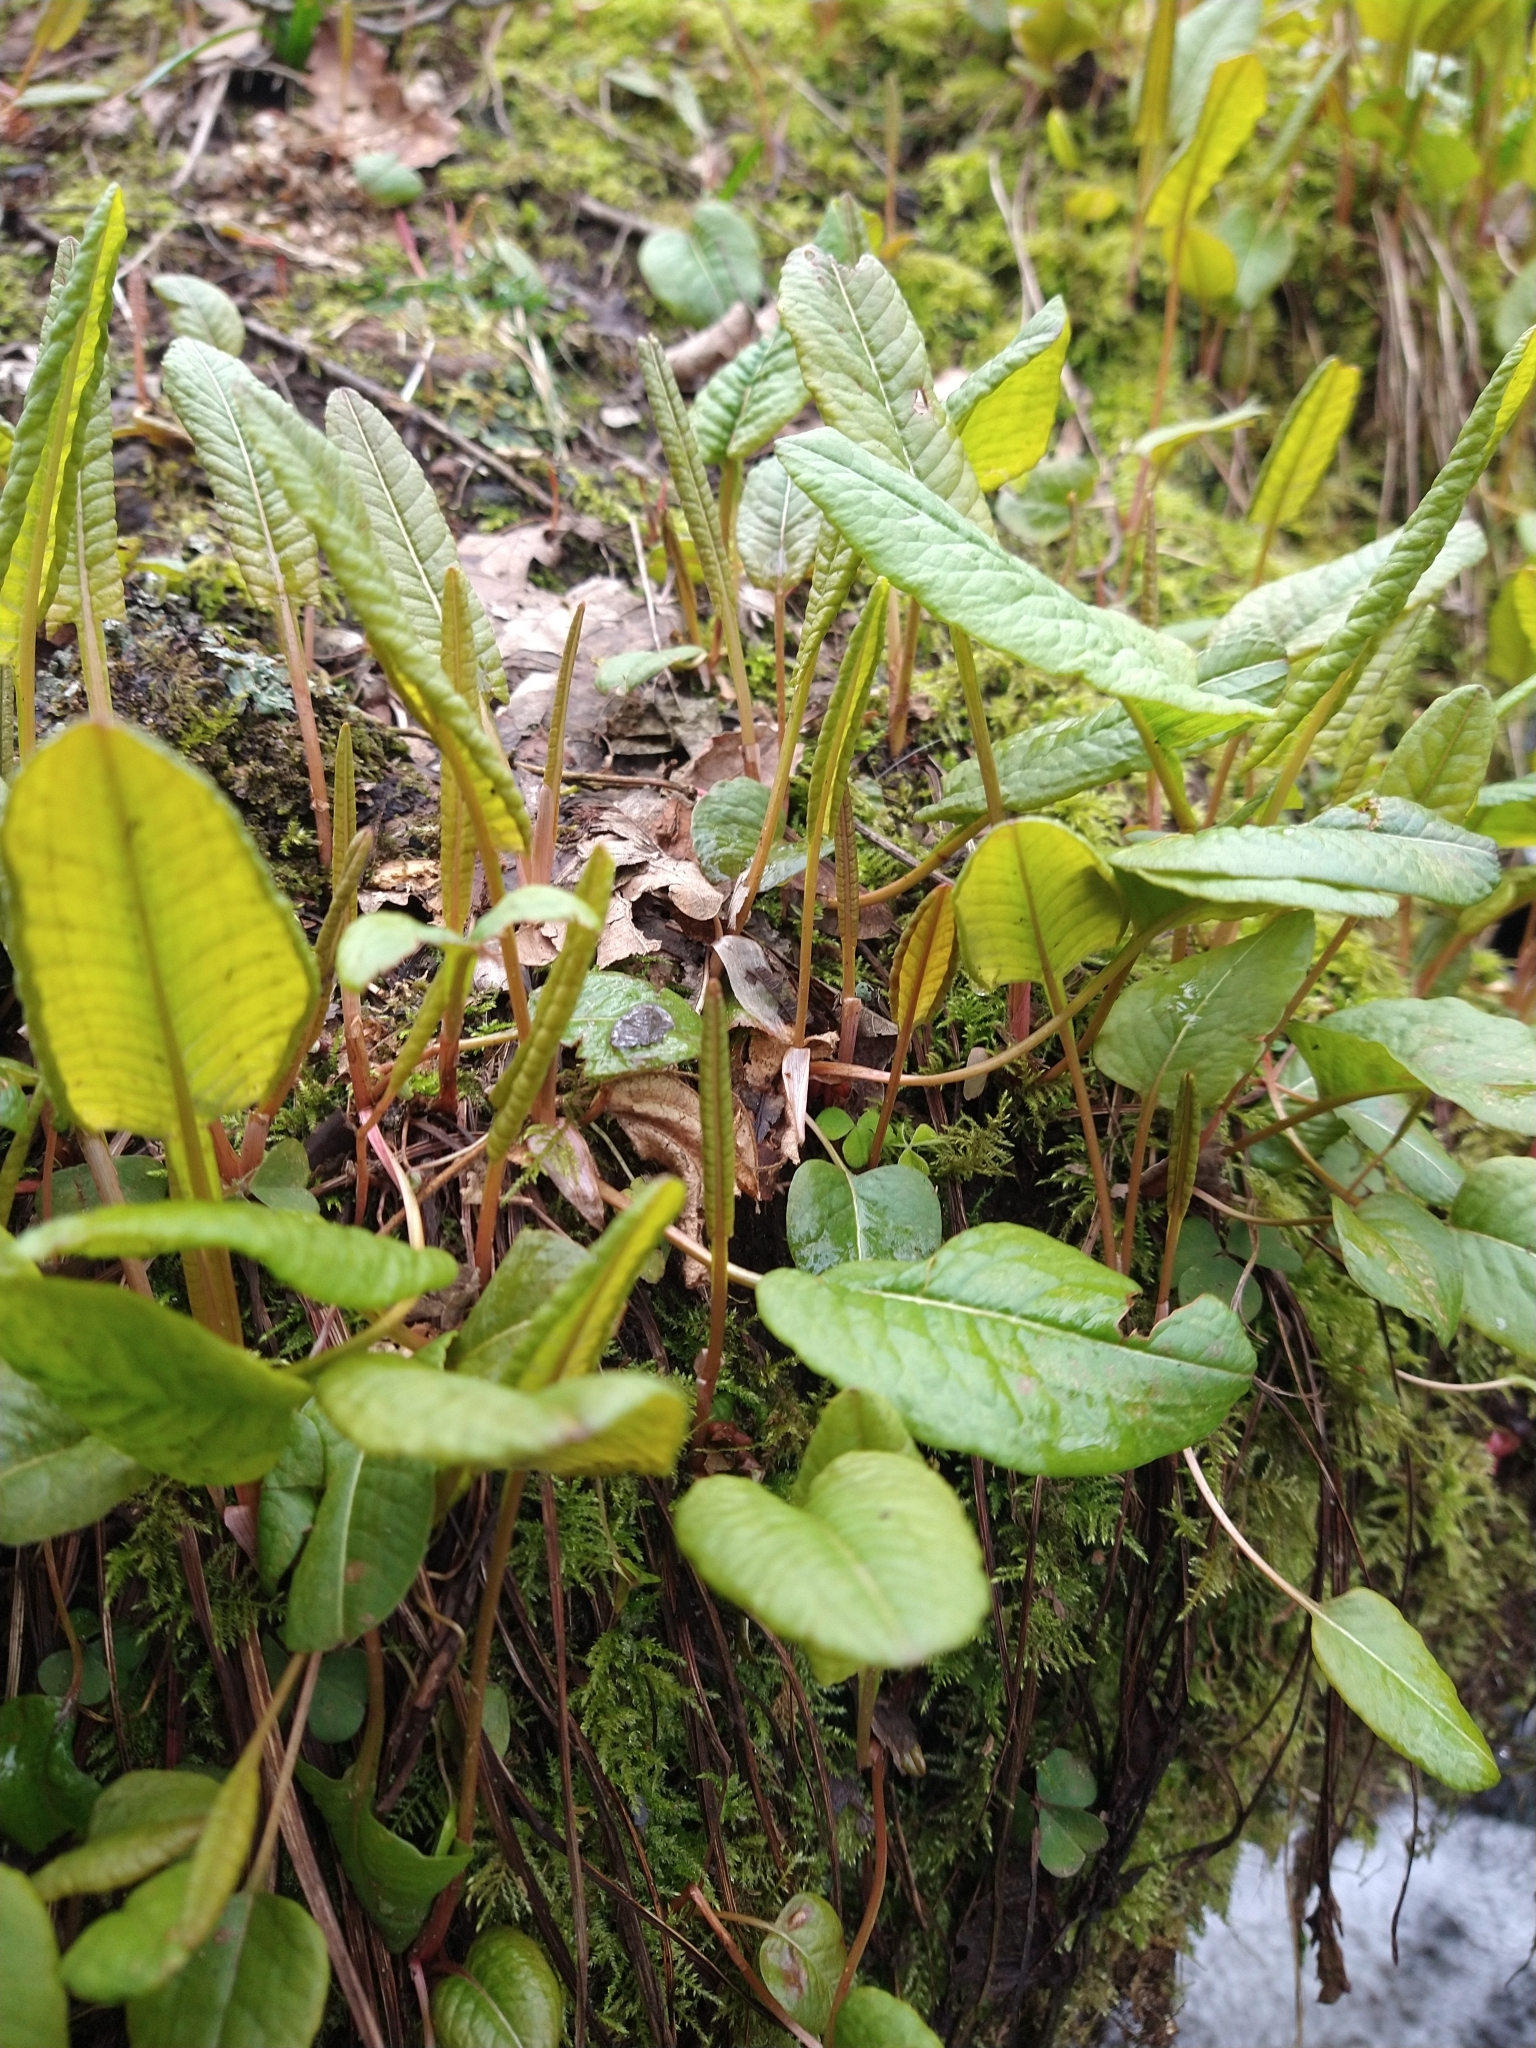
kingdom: Plantae
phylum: Tracheophyta
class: Magnoliopsida
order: Caryophyllales
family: Polygonaceae
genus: Bistorta
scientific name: Bistorta officinalis
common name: Common bistort
